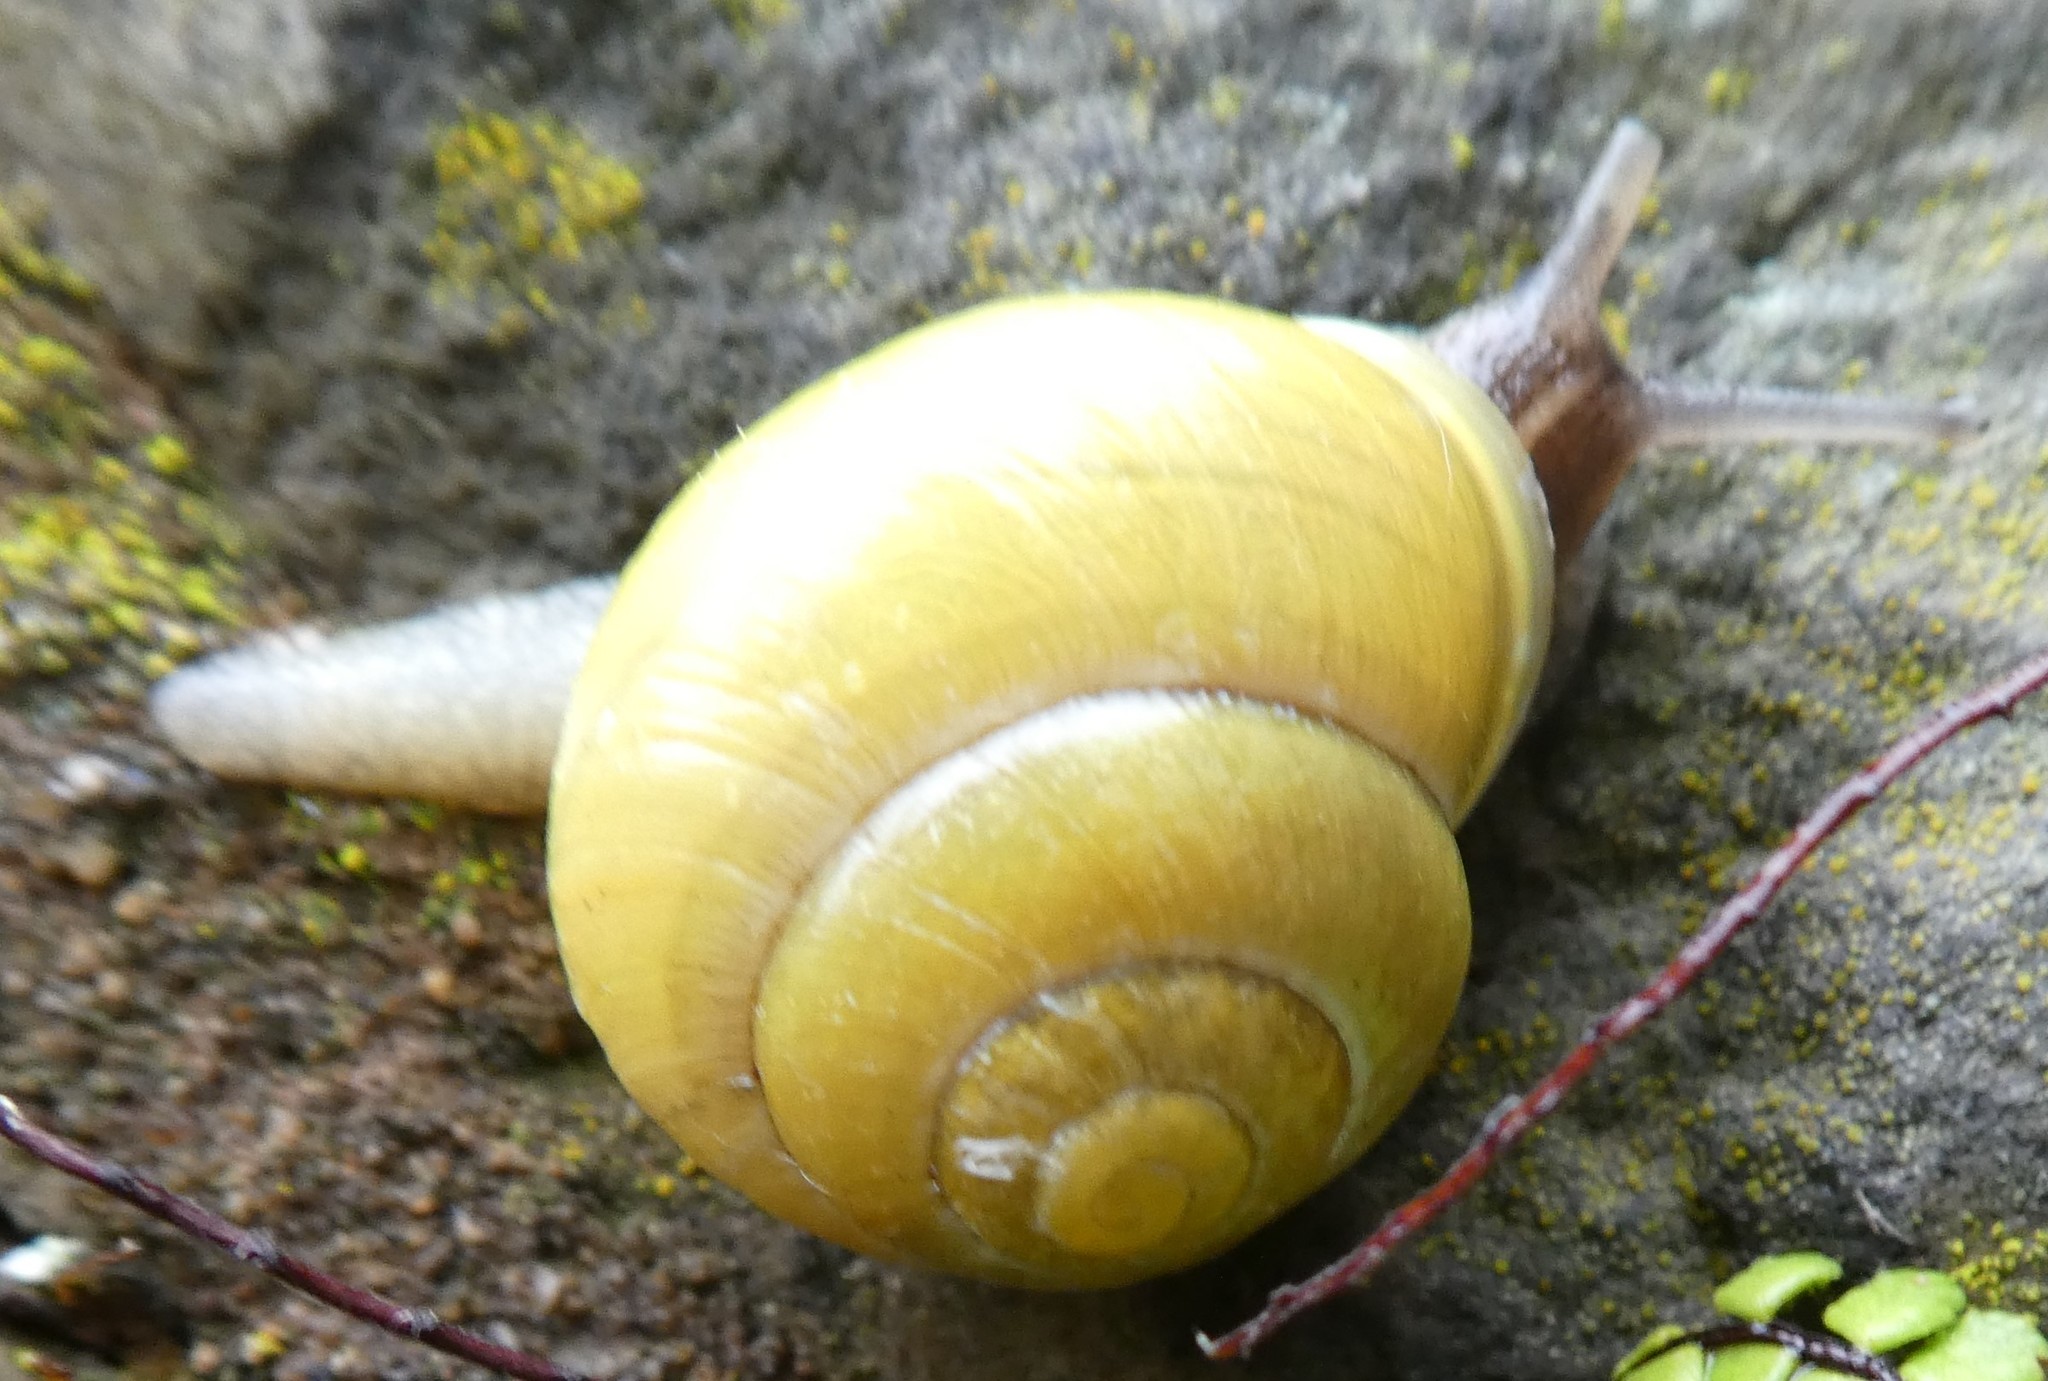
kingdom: Animalia
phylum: Mollusca
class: Gastropoda
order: Stylommatophora
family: Helicidae
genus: Cepaea
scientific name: Cepaea hortensis
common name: White-lip gardensnail
